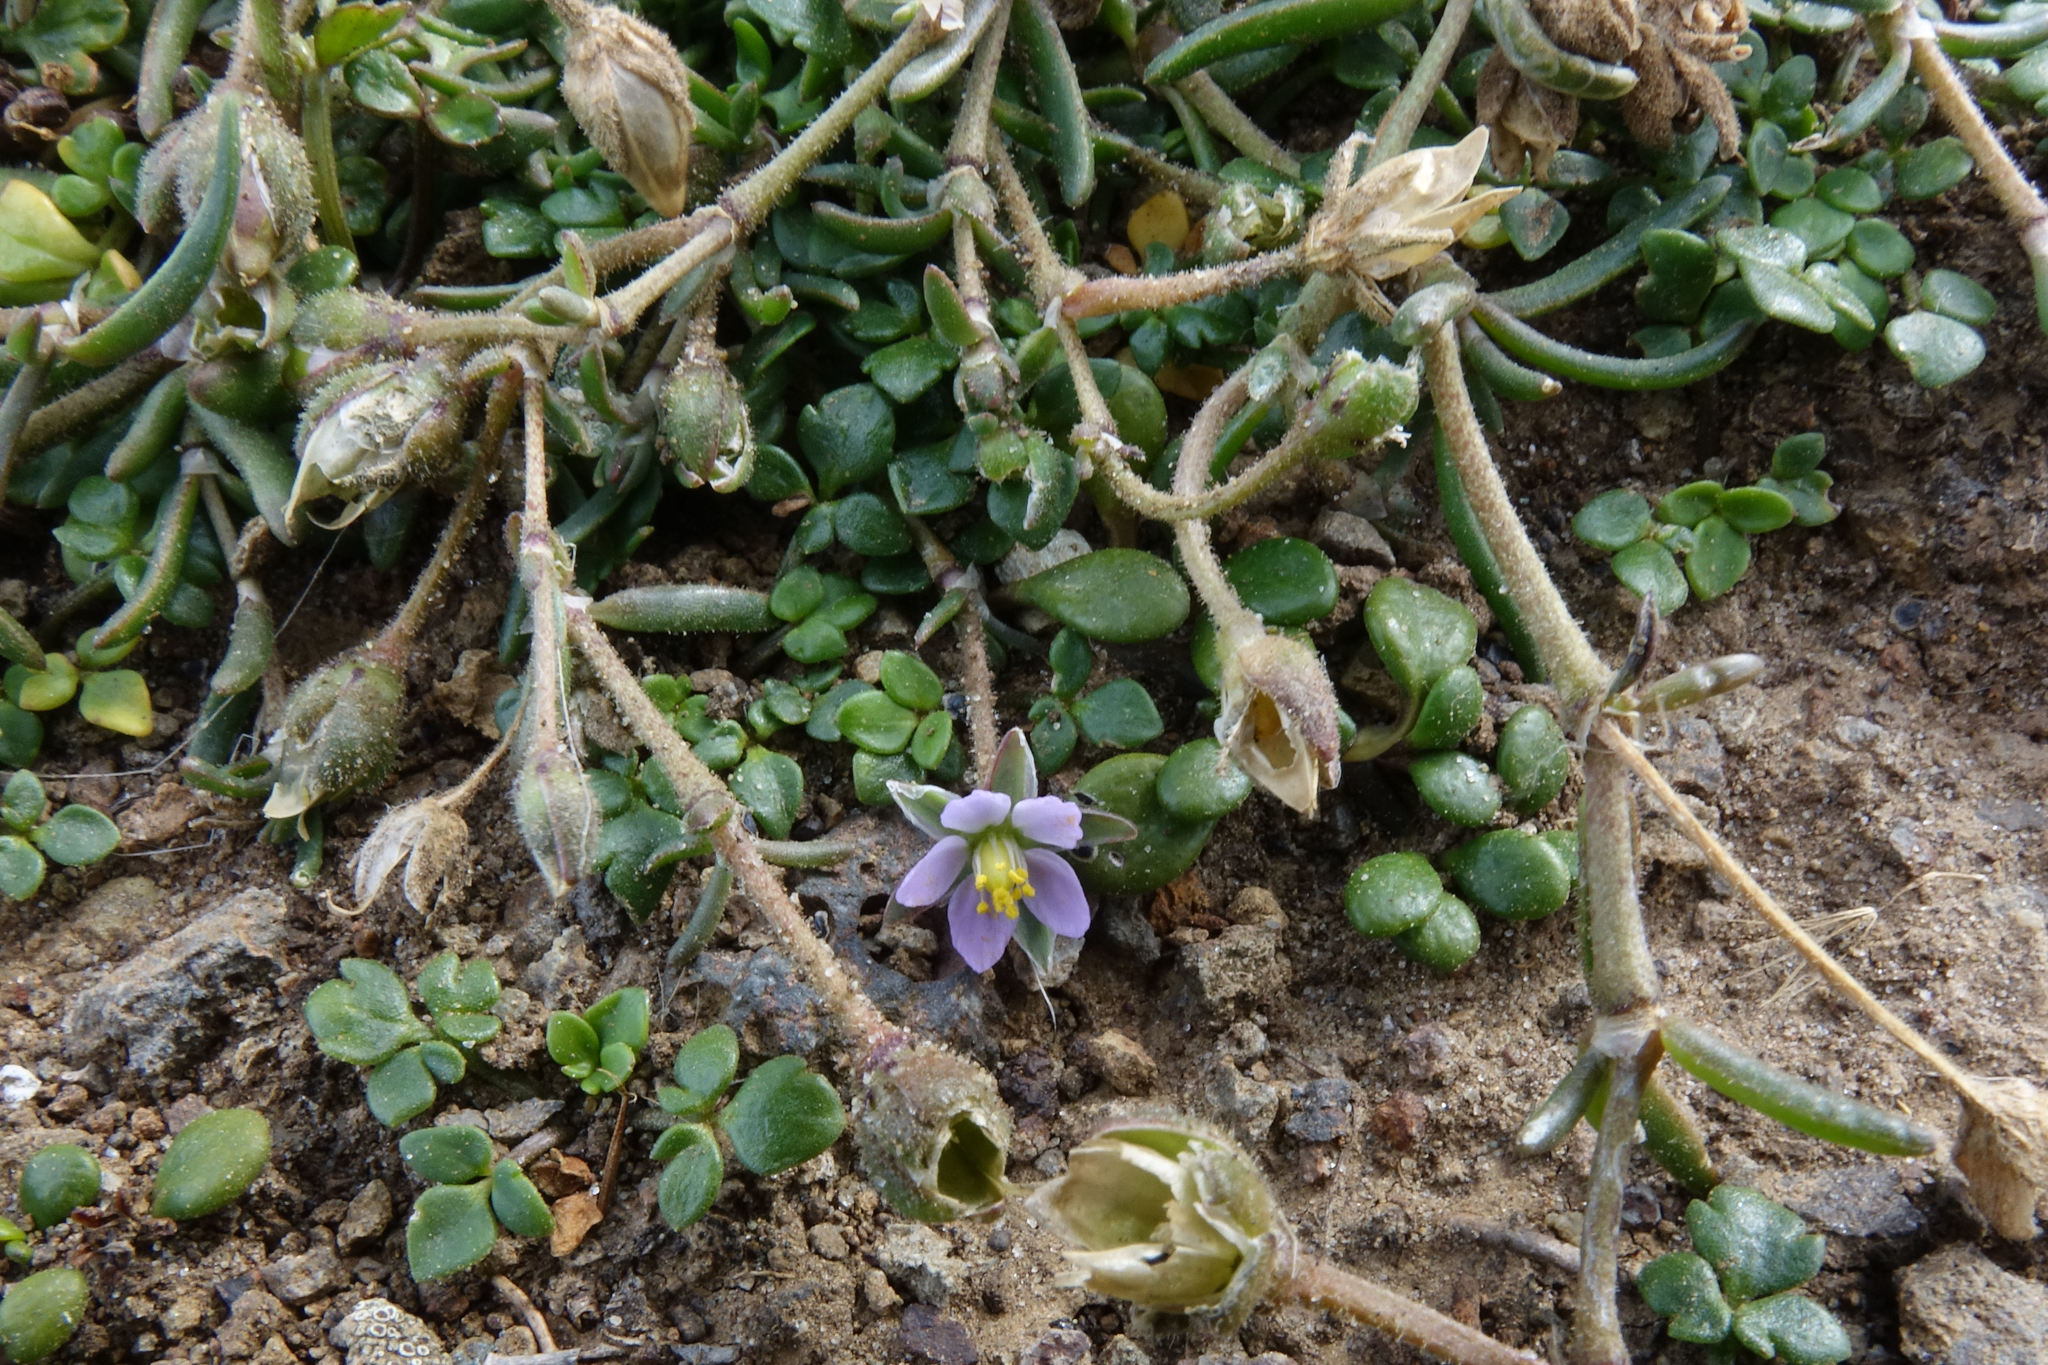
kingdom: Plantae
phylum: Tracheophyta
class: Magnoliopsida
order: Caryophyllales
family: Caryophyllaceae
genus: Spergularia
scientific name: Spergularia marina
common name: Lesser sea-spurrey
